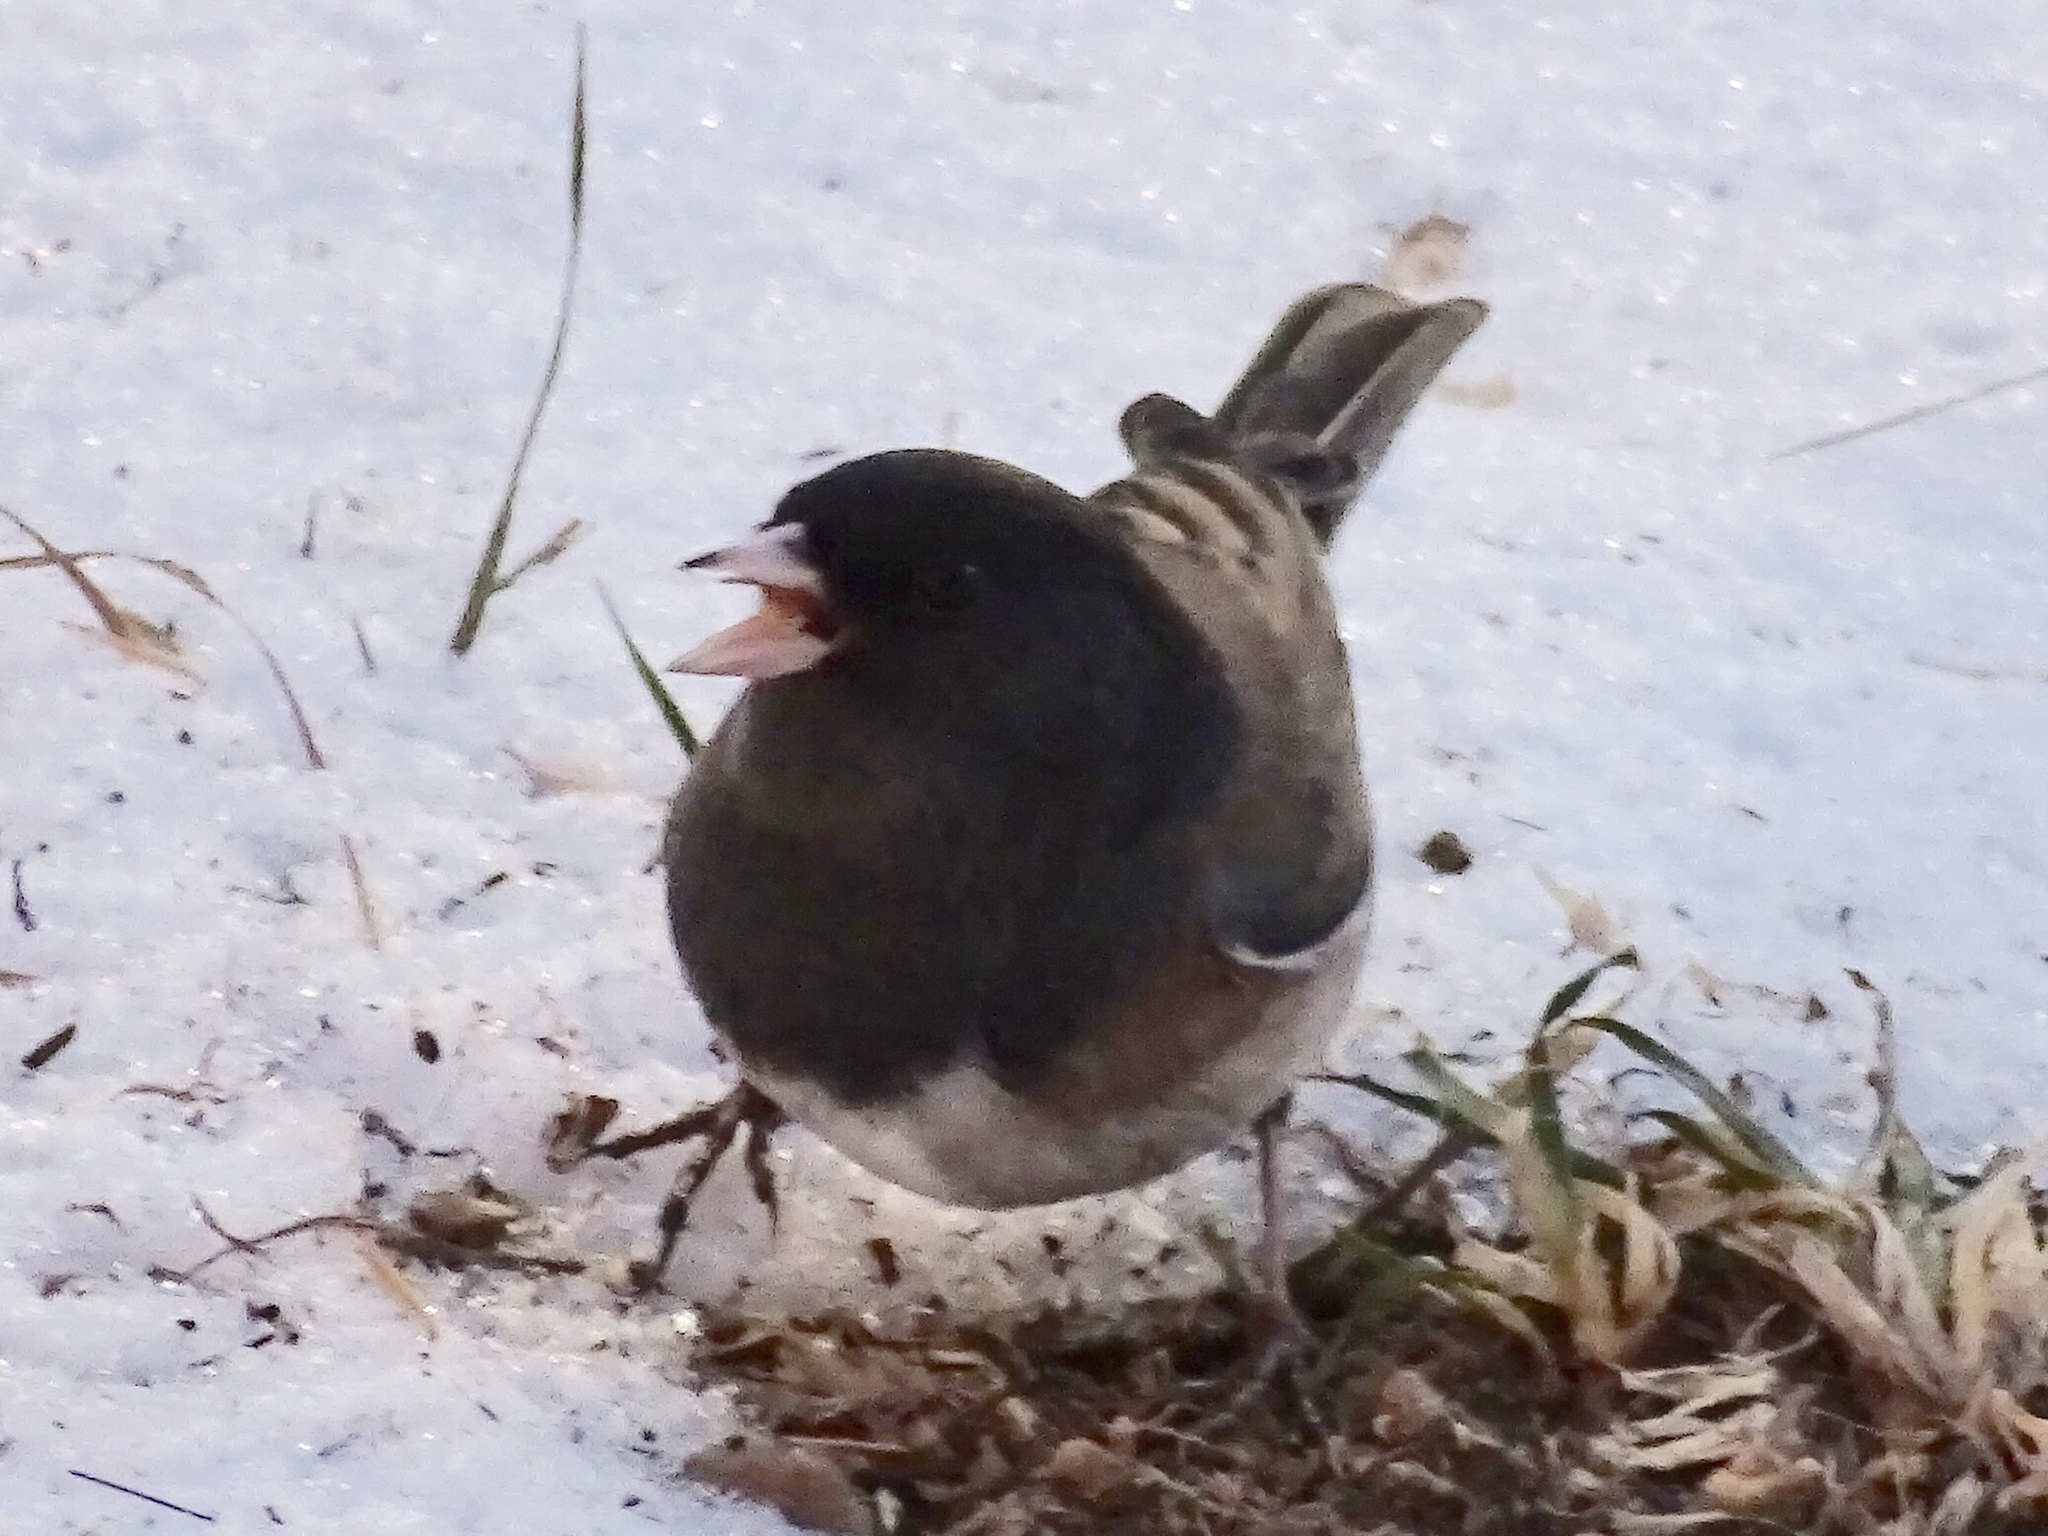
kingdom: Animalia
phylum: Chordata
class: Aves
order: Passeriformes
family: Passerellidae
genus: Junco
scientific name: Junco hyemalis
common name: Dark-eyed junco
